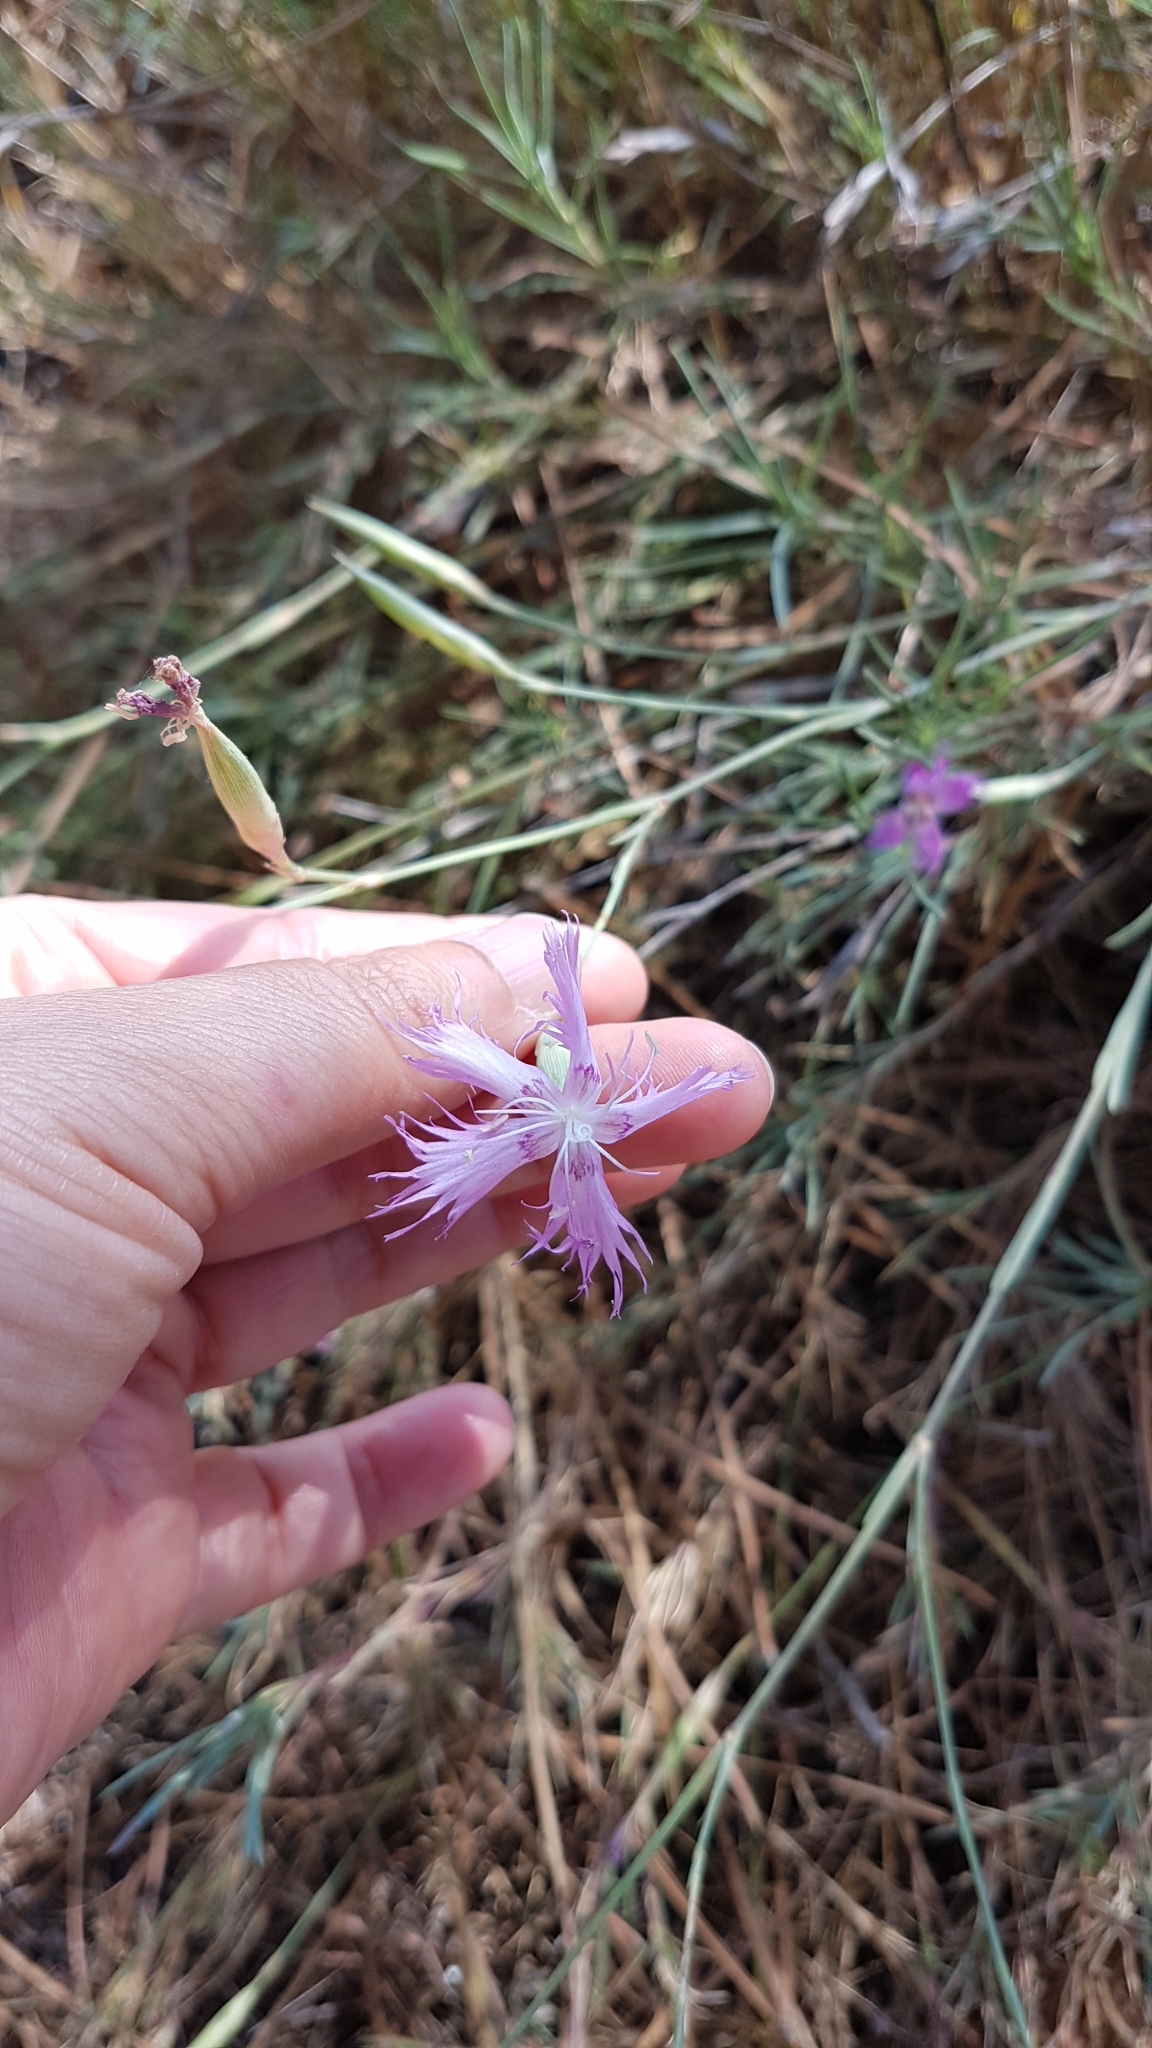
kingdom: Plantae
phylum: Tracheophyta
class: Magnoliopsida
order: Caryophyllales
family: Caryophyllaceae
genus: Dianthus
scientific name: Dianthus broteri
